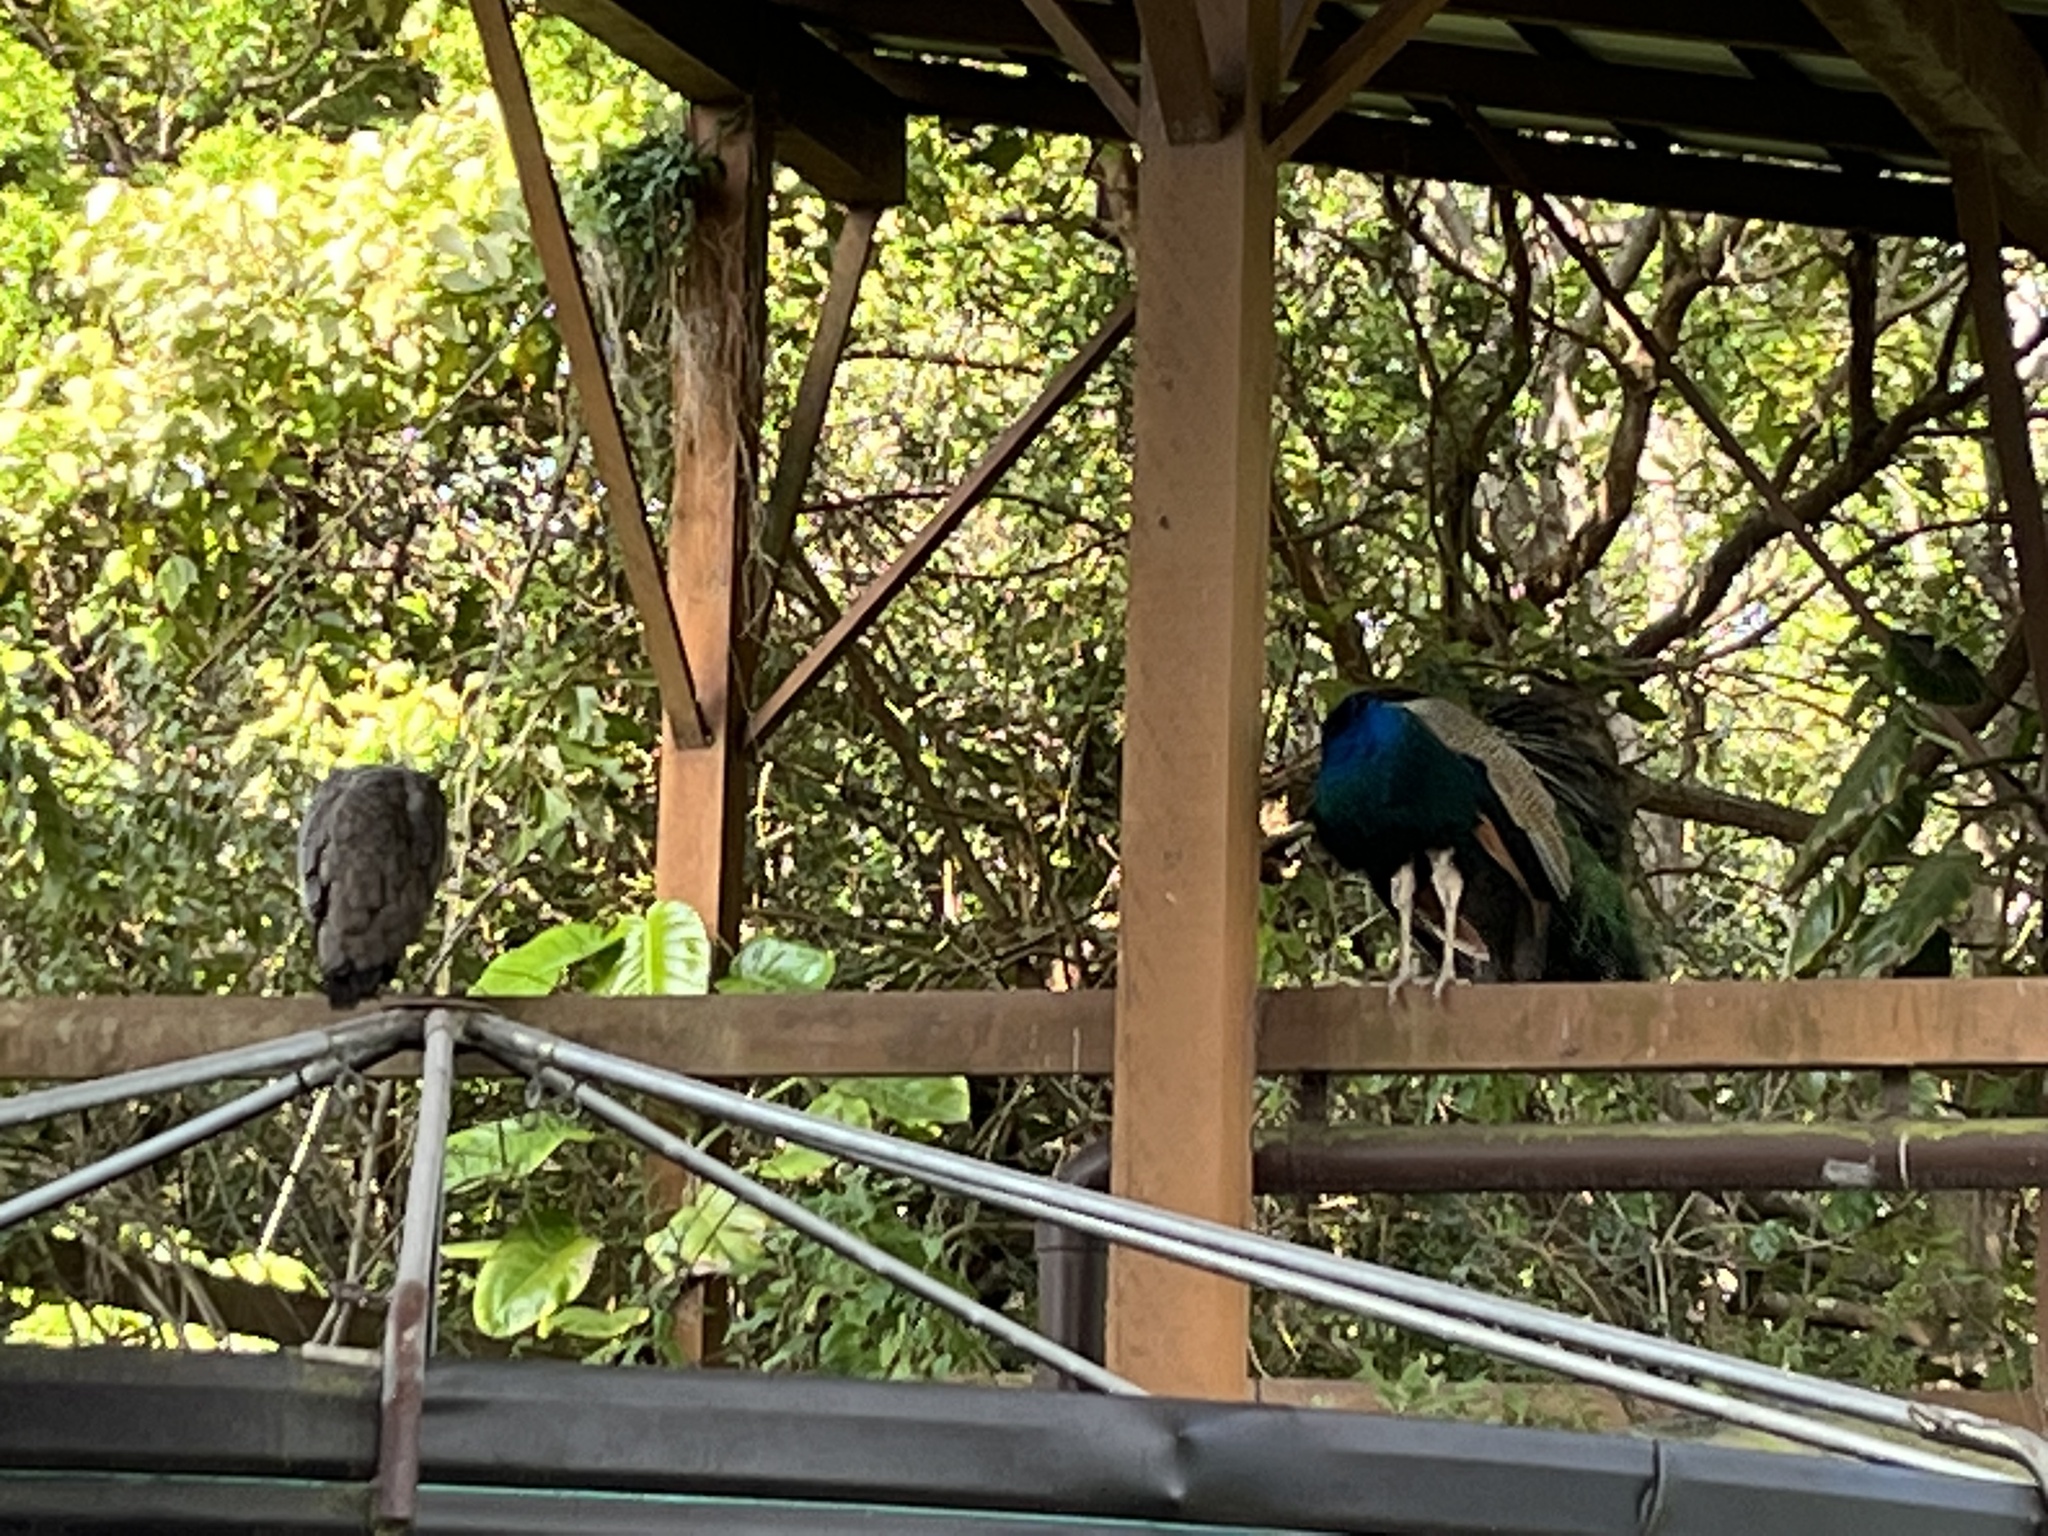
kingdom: Animalia
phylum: Chordata
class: Aves
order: Galliformes
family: Phasianidae
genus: Pavo
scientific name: Pavo cristatus
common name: Indian peafowl
